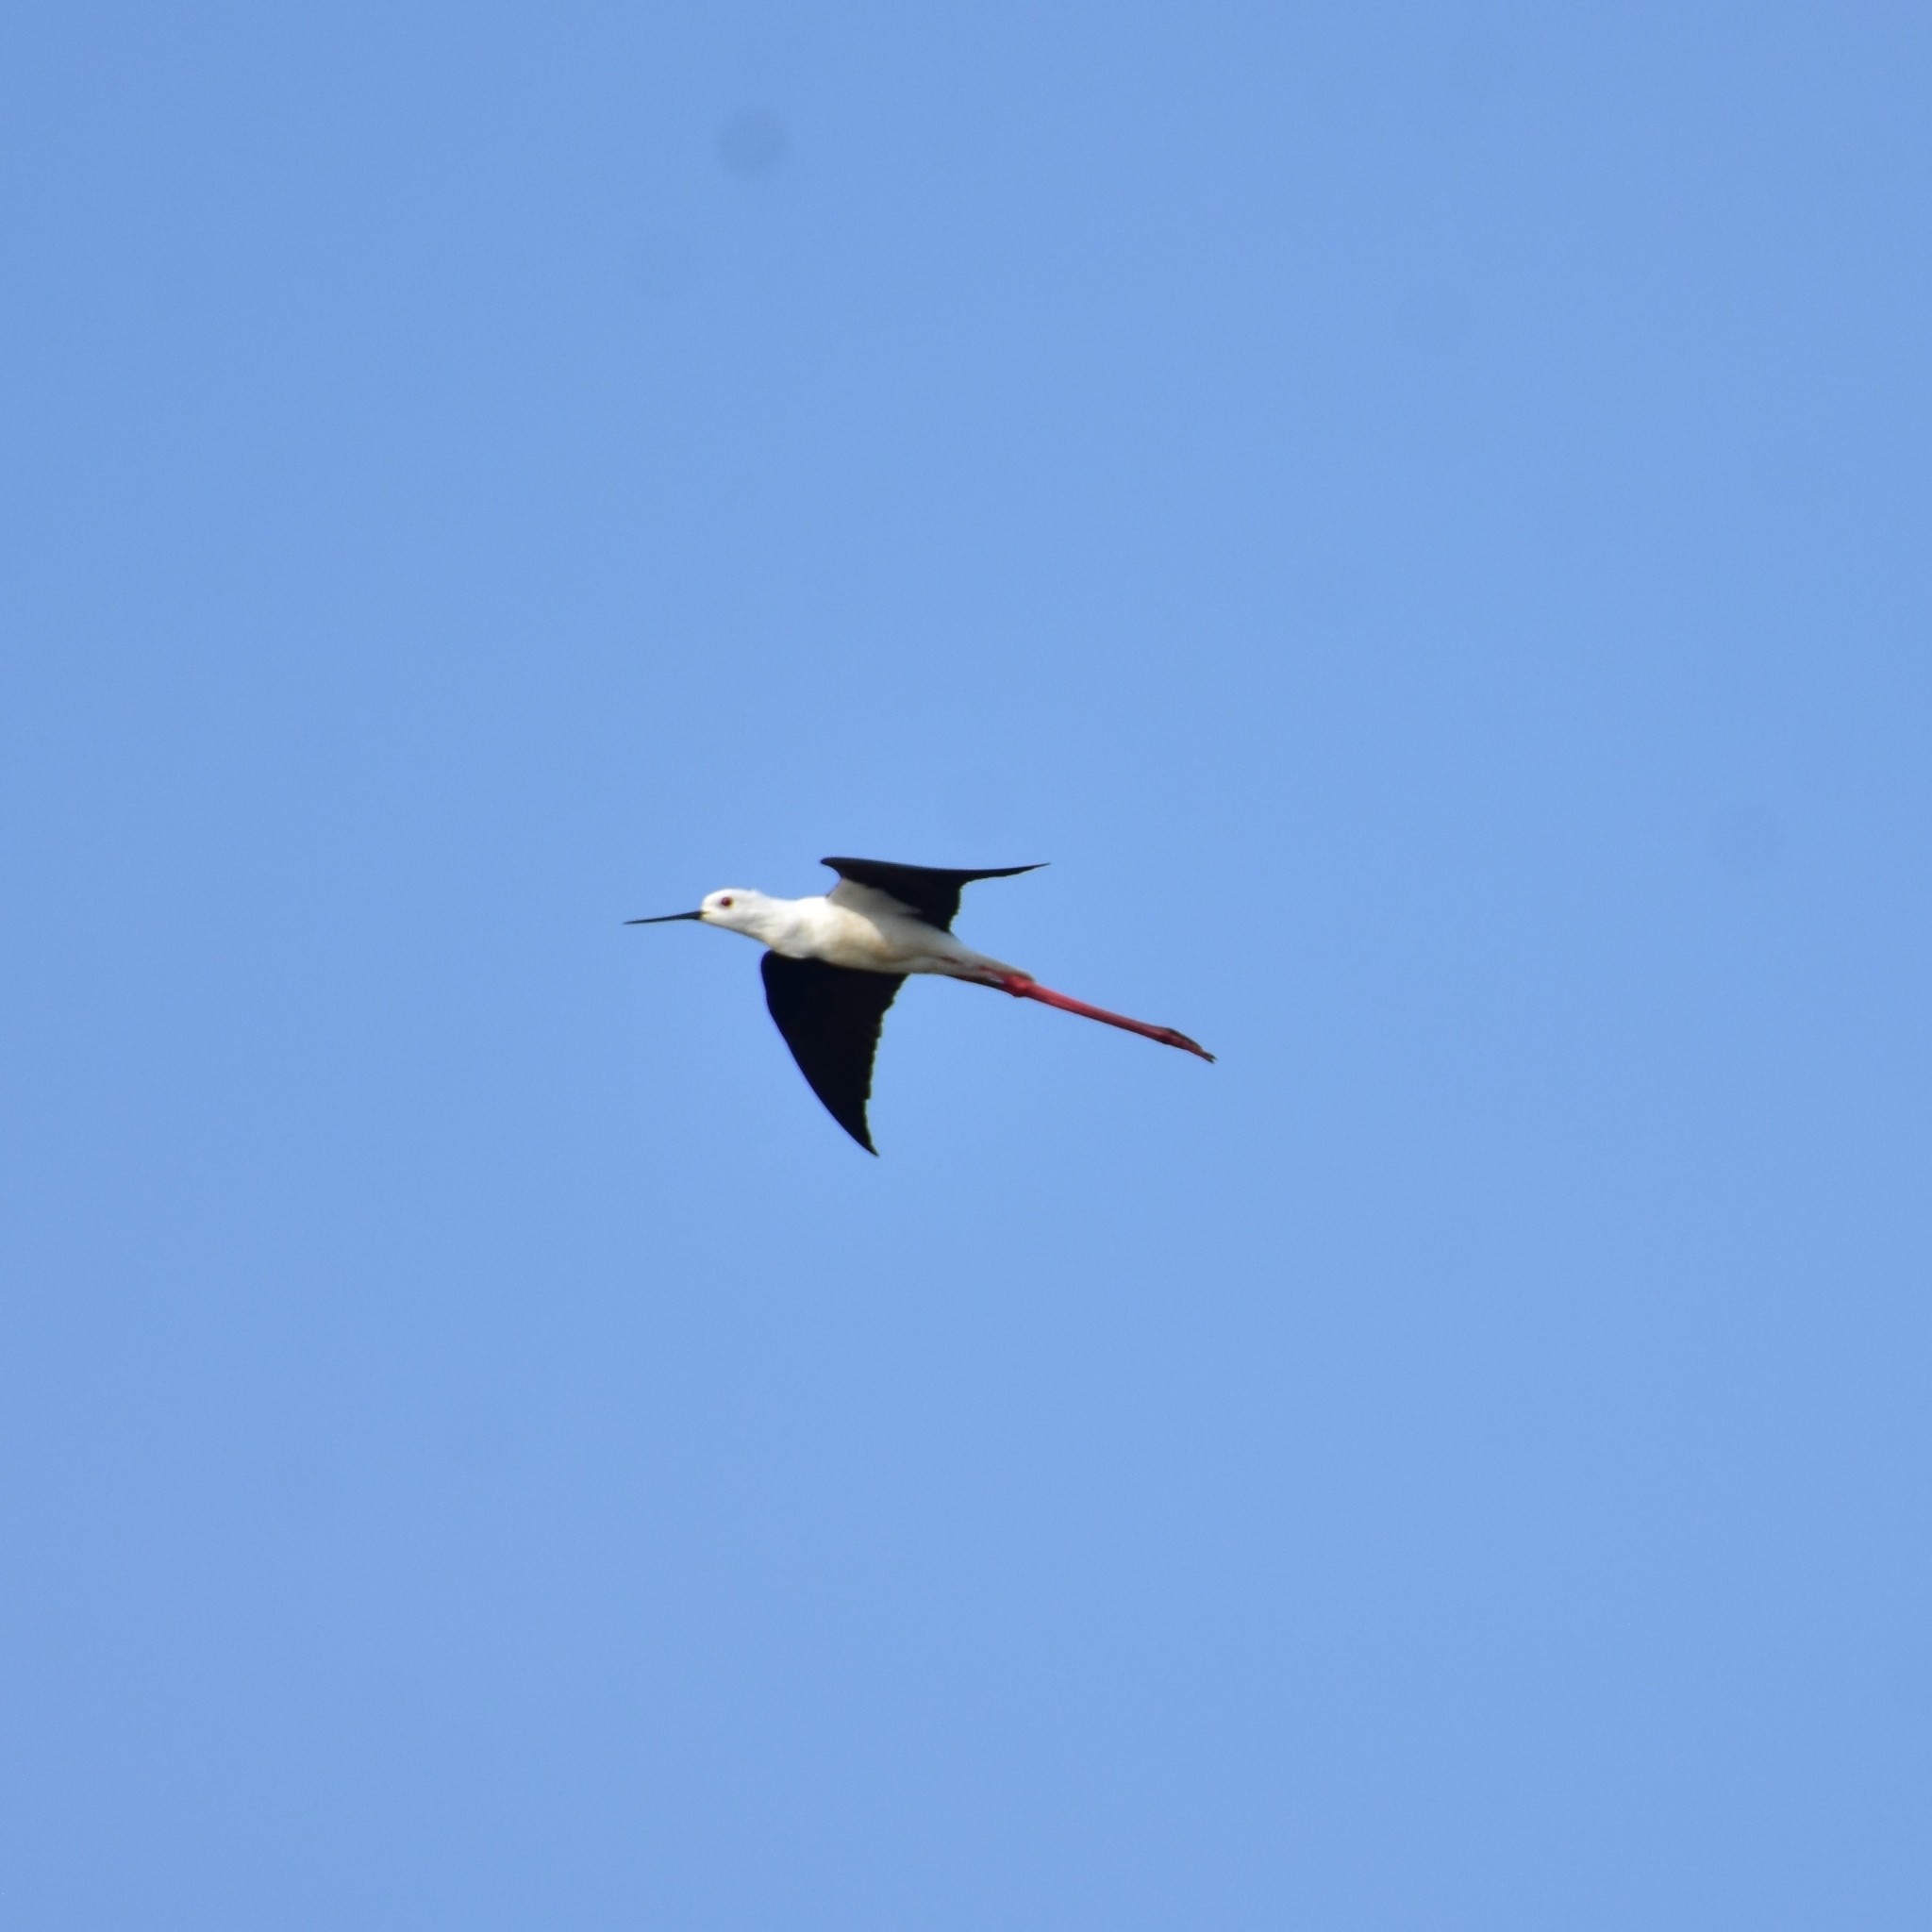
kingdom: Animalia
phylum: Chordata
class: Aves
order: Charadriiformes
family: Recurvirostridae
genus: Himantopus
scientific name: Himantopus himantopus
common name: Black-winged stilt
